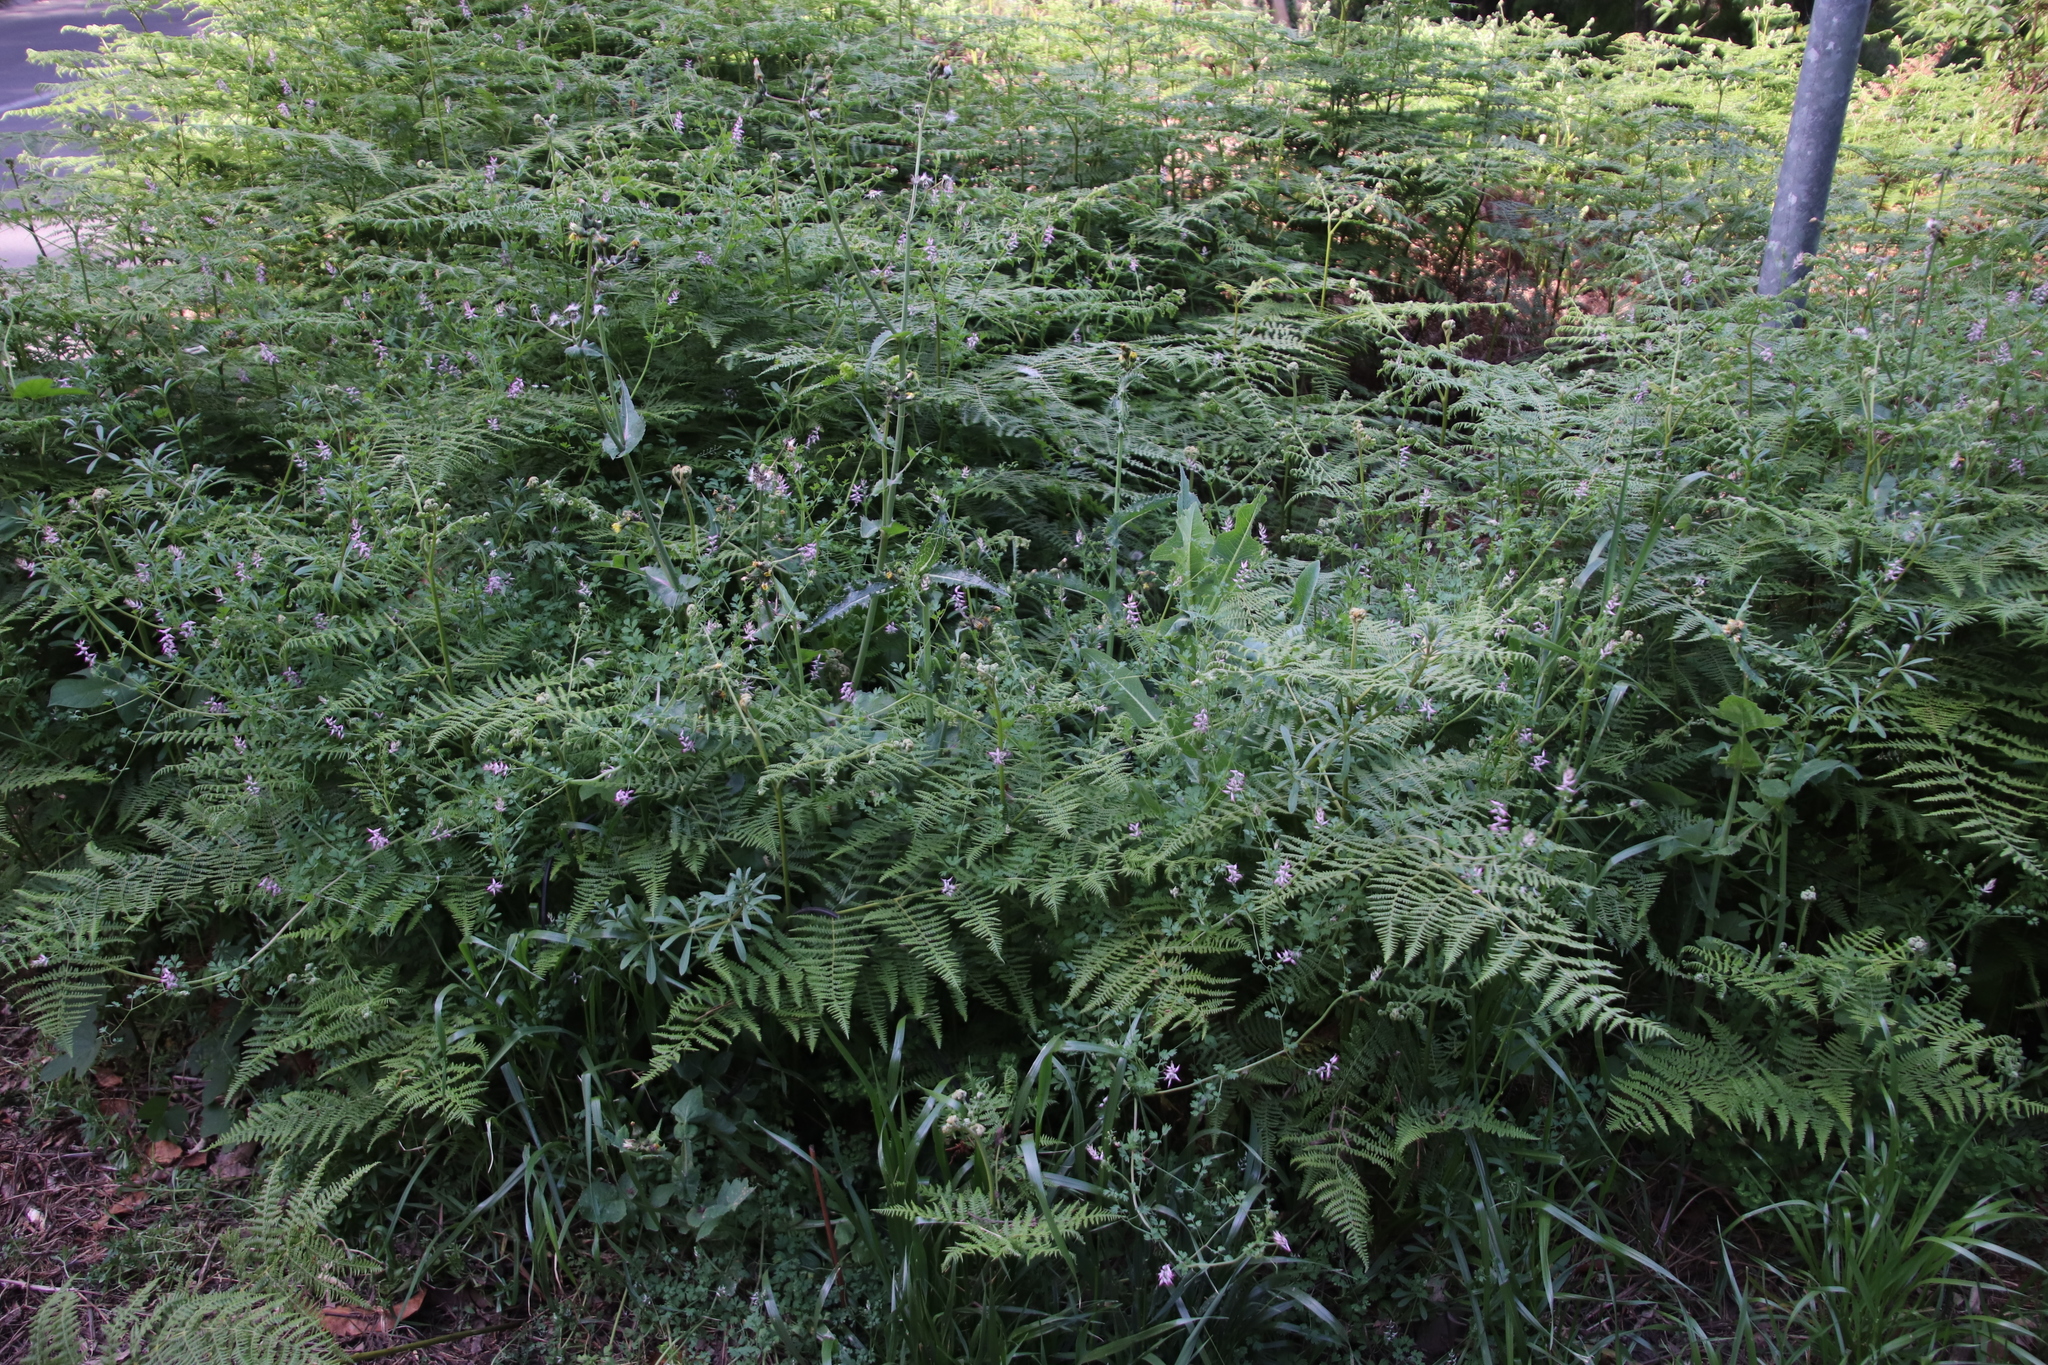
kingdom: Plantae
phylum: Tracheophyta
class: Magnoliopsida
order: Ranunculales
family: Papaveraceae
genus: Fumaria
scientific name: Fumaria muralis
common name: Common ramping-fumitory
